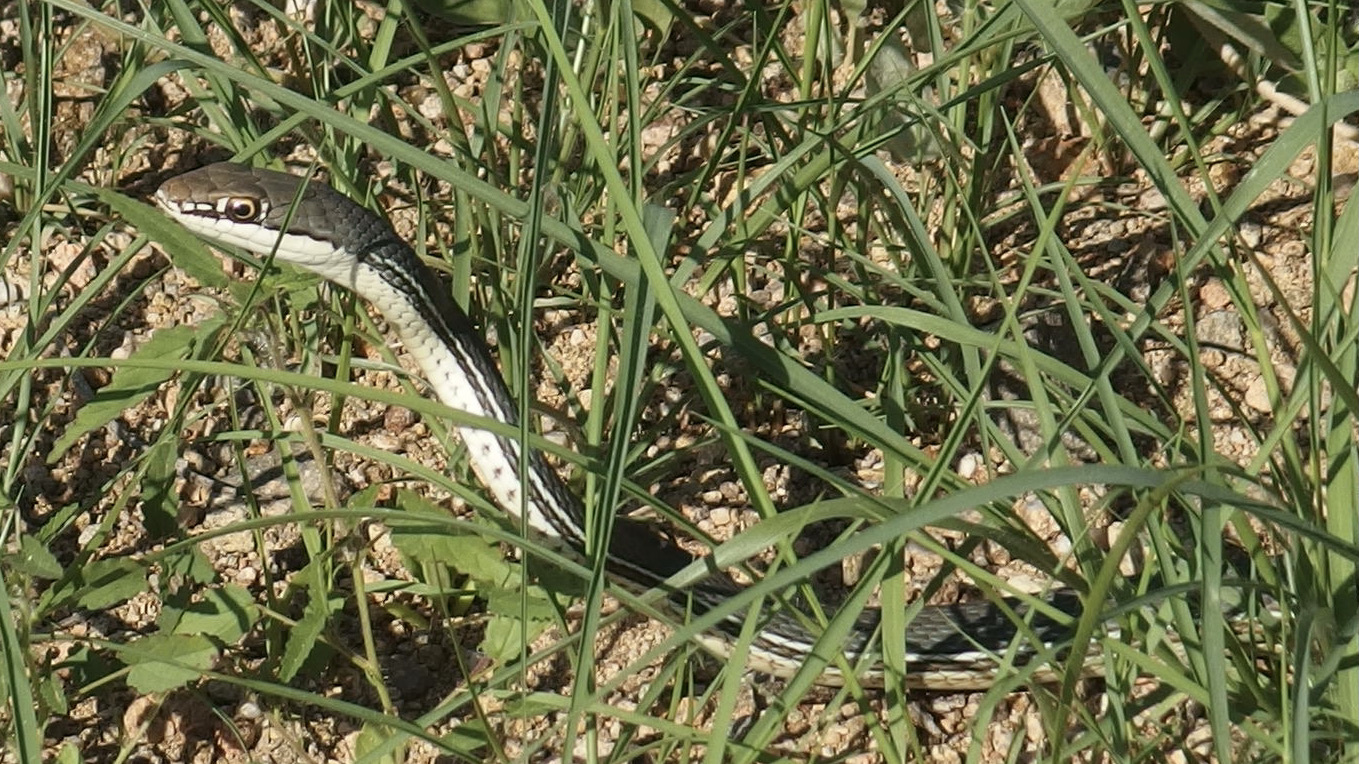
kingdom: Animalia
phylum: Chordata
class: Squamata
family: Colubridae
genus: Masticophis
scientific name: Masticophis bilineatus
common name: Sonoran whipsnake
